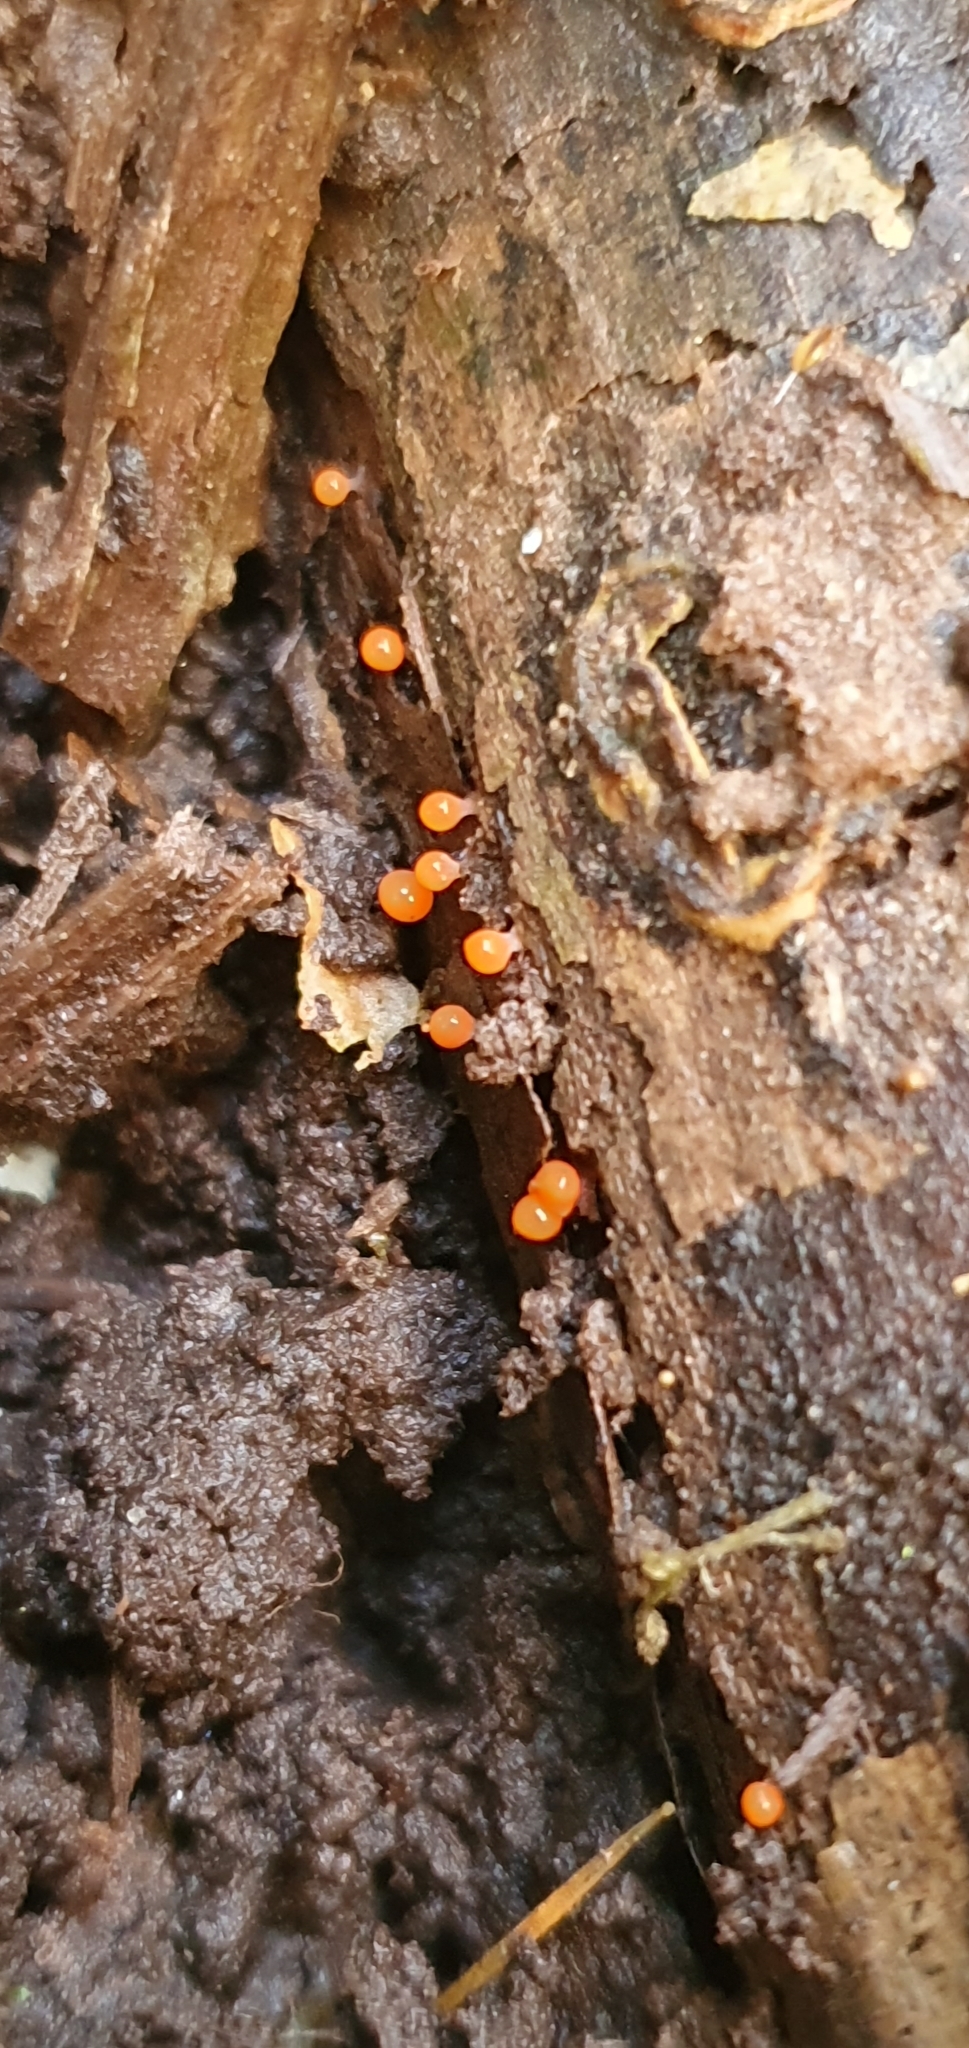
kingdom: Protozoa
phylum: Mycetozoa
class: Myxomycetes
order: Trichiales
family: Arcyriaceae
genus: Hemitrichia
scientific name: Hemitrichia decipiens
